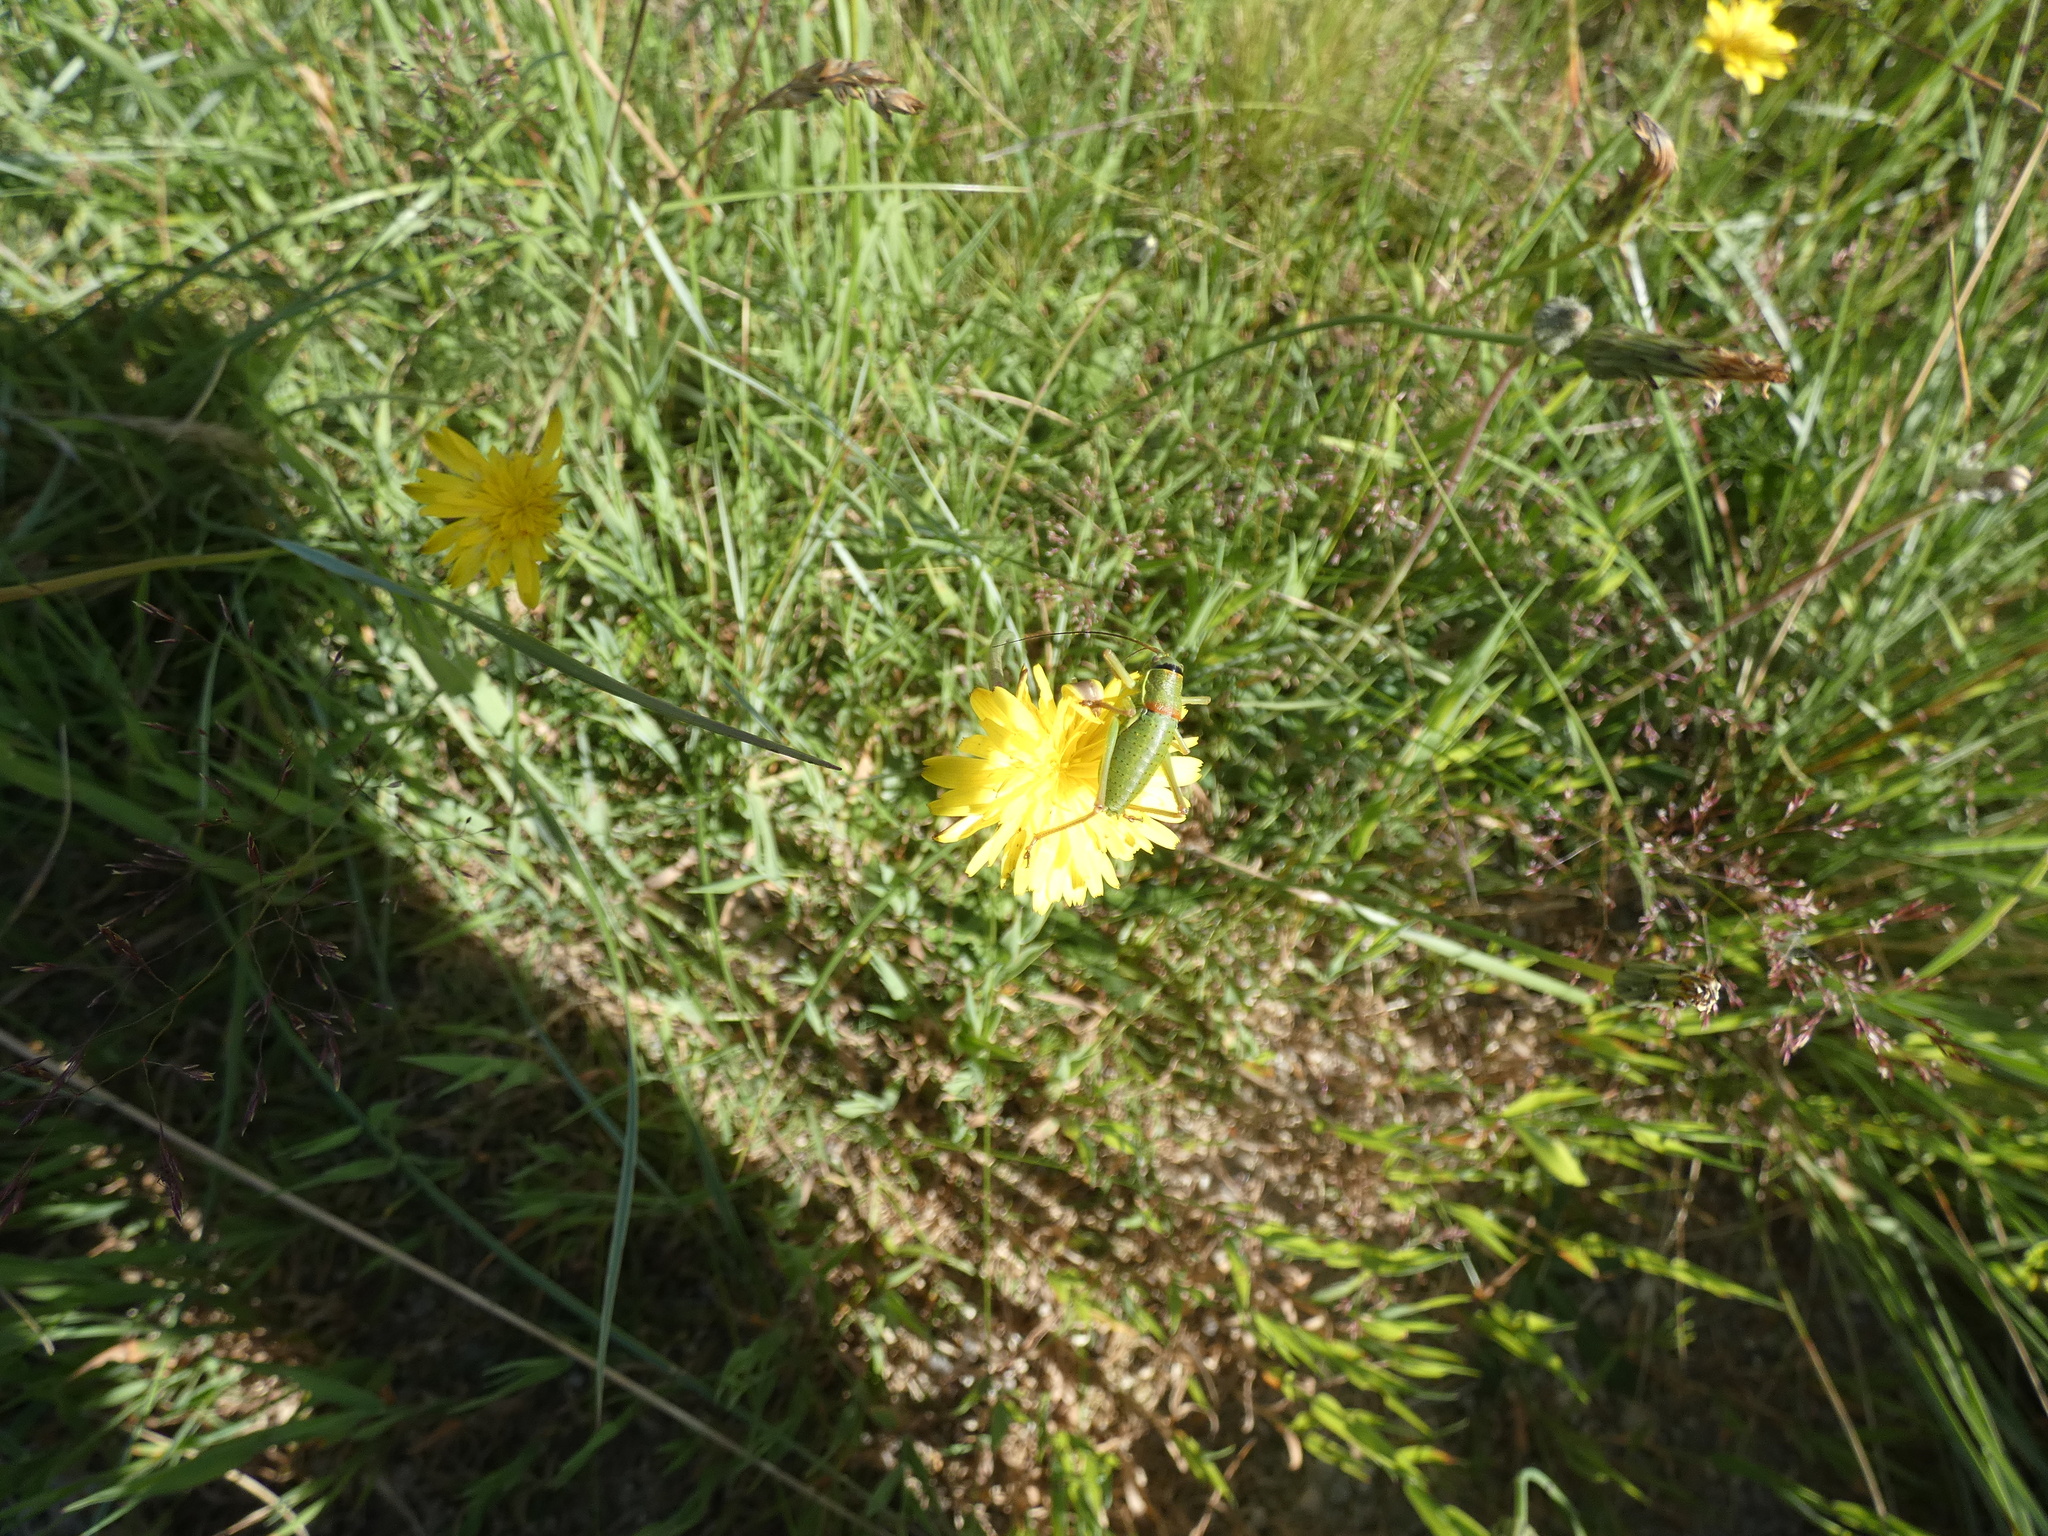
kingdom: Animalia
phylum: Arthropoda
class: Insecta
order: Orthoptera
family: Tettigoniidae
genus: Ephippiger
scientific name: Ephippiger diurnus
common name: Western saddle bush-cricket
